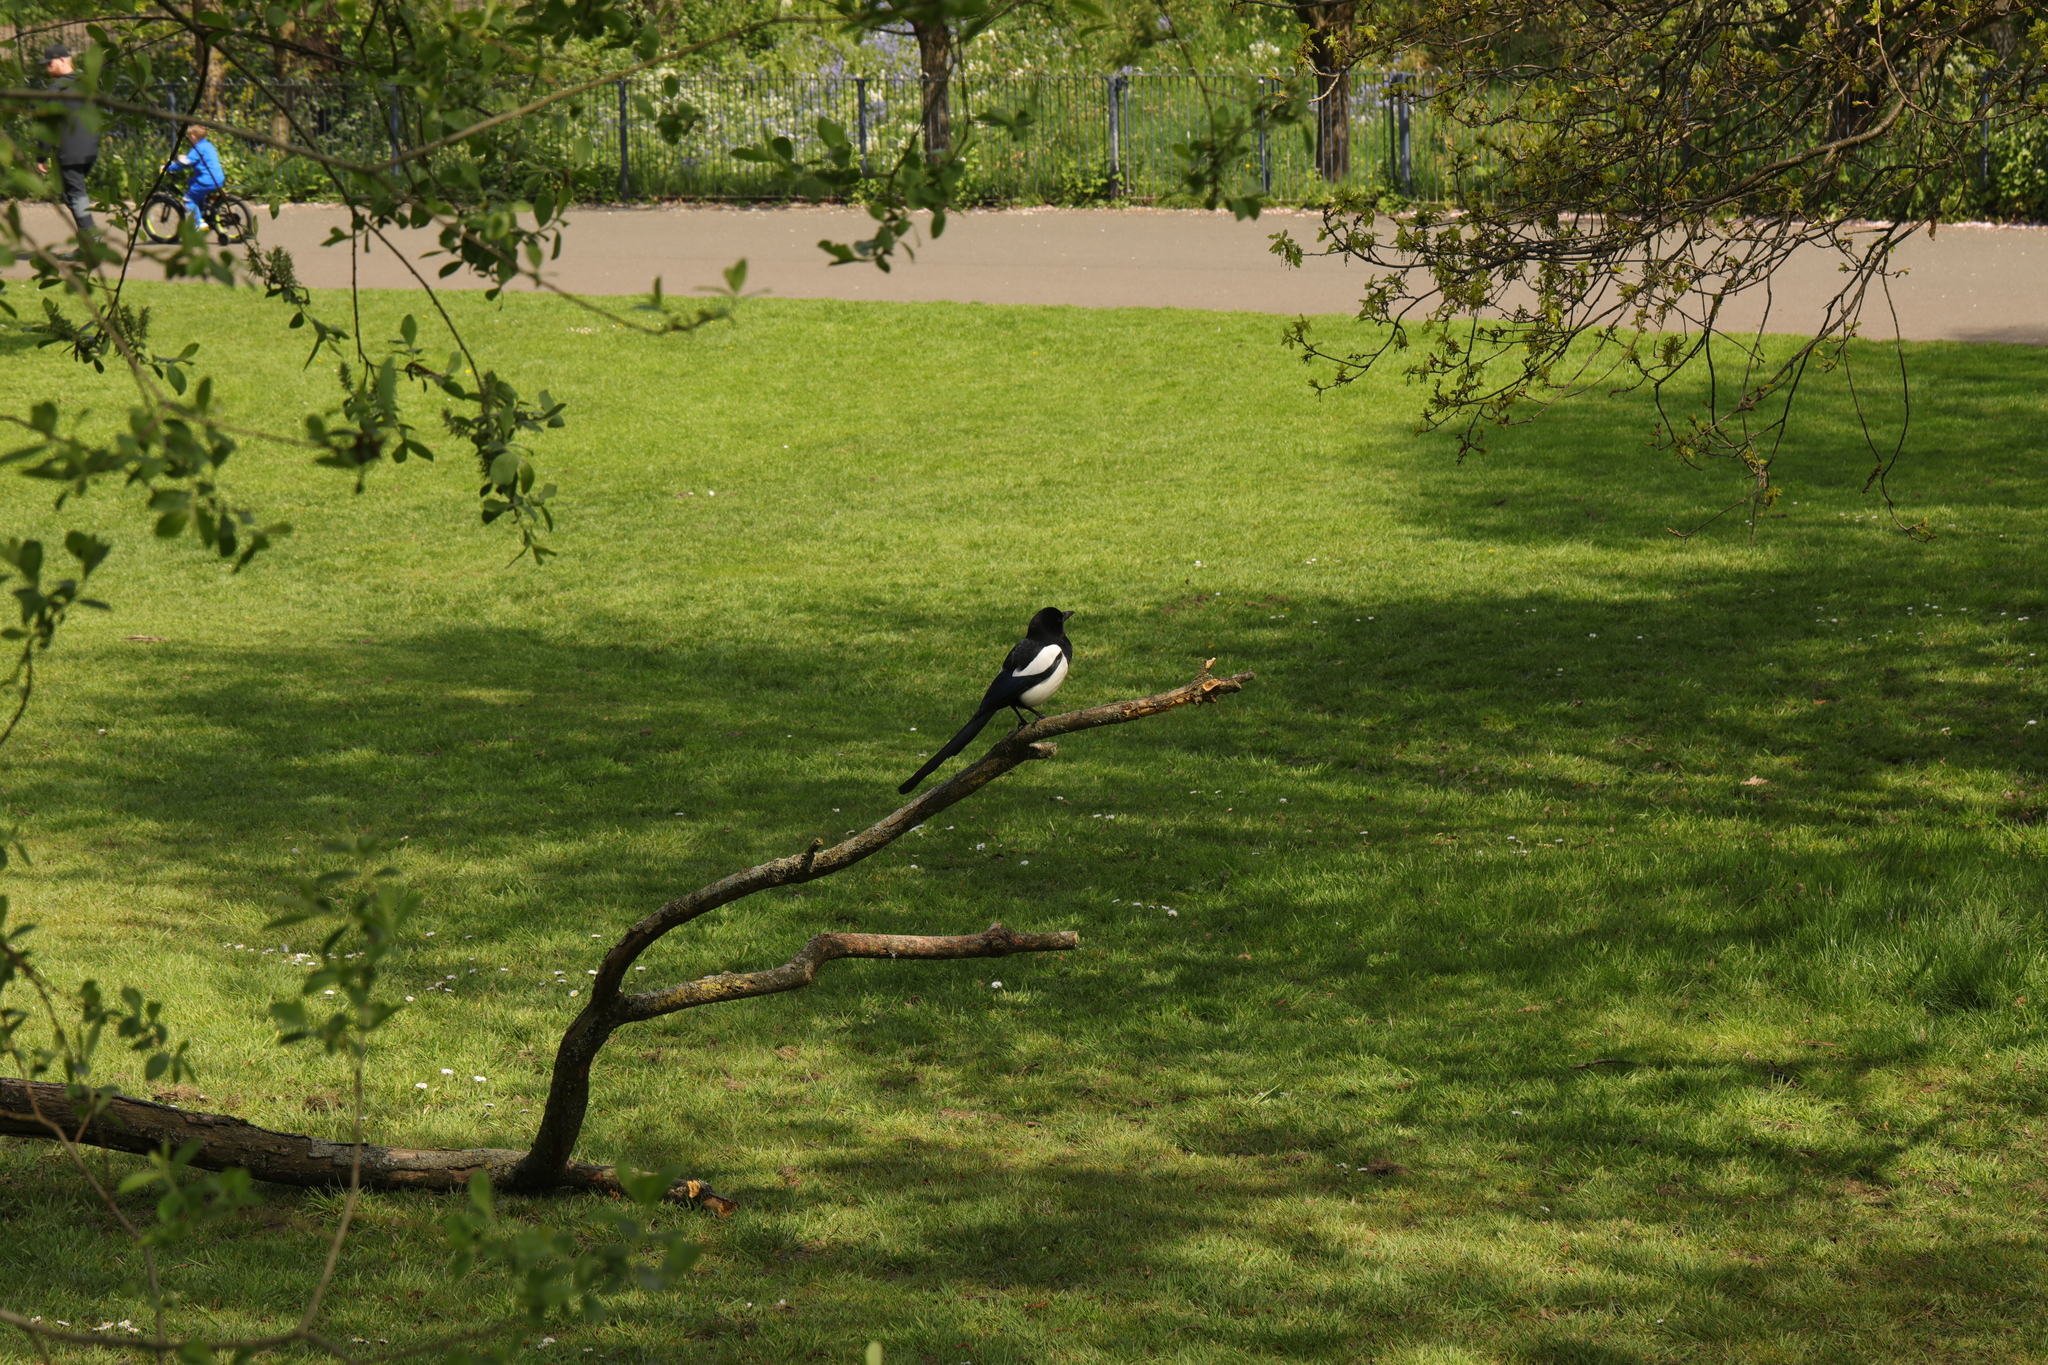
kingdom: Animalia
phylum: Chordata
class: Aves
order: Passeriformes
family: Corvidae
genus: Pica
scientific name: Pica pica
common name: Eurasian magpie
